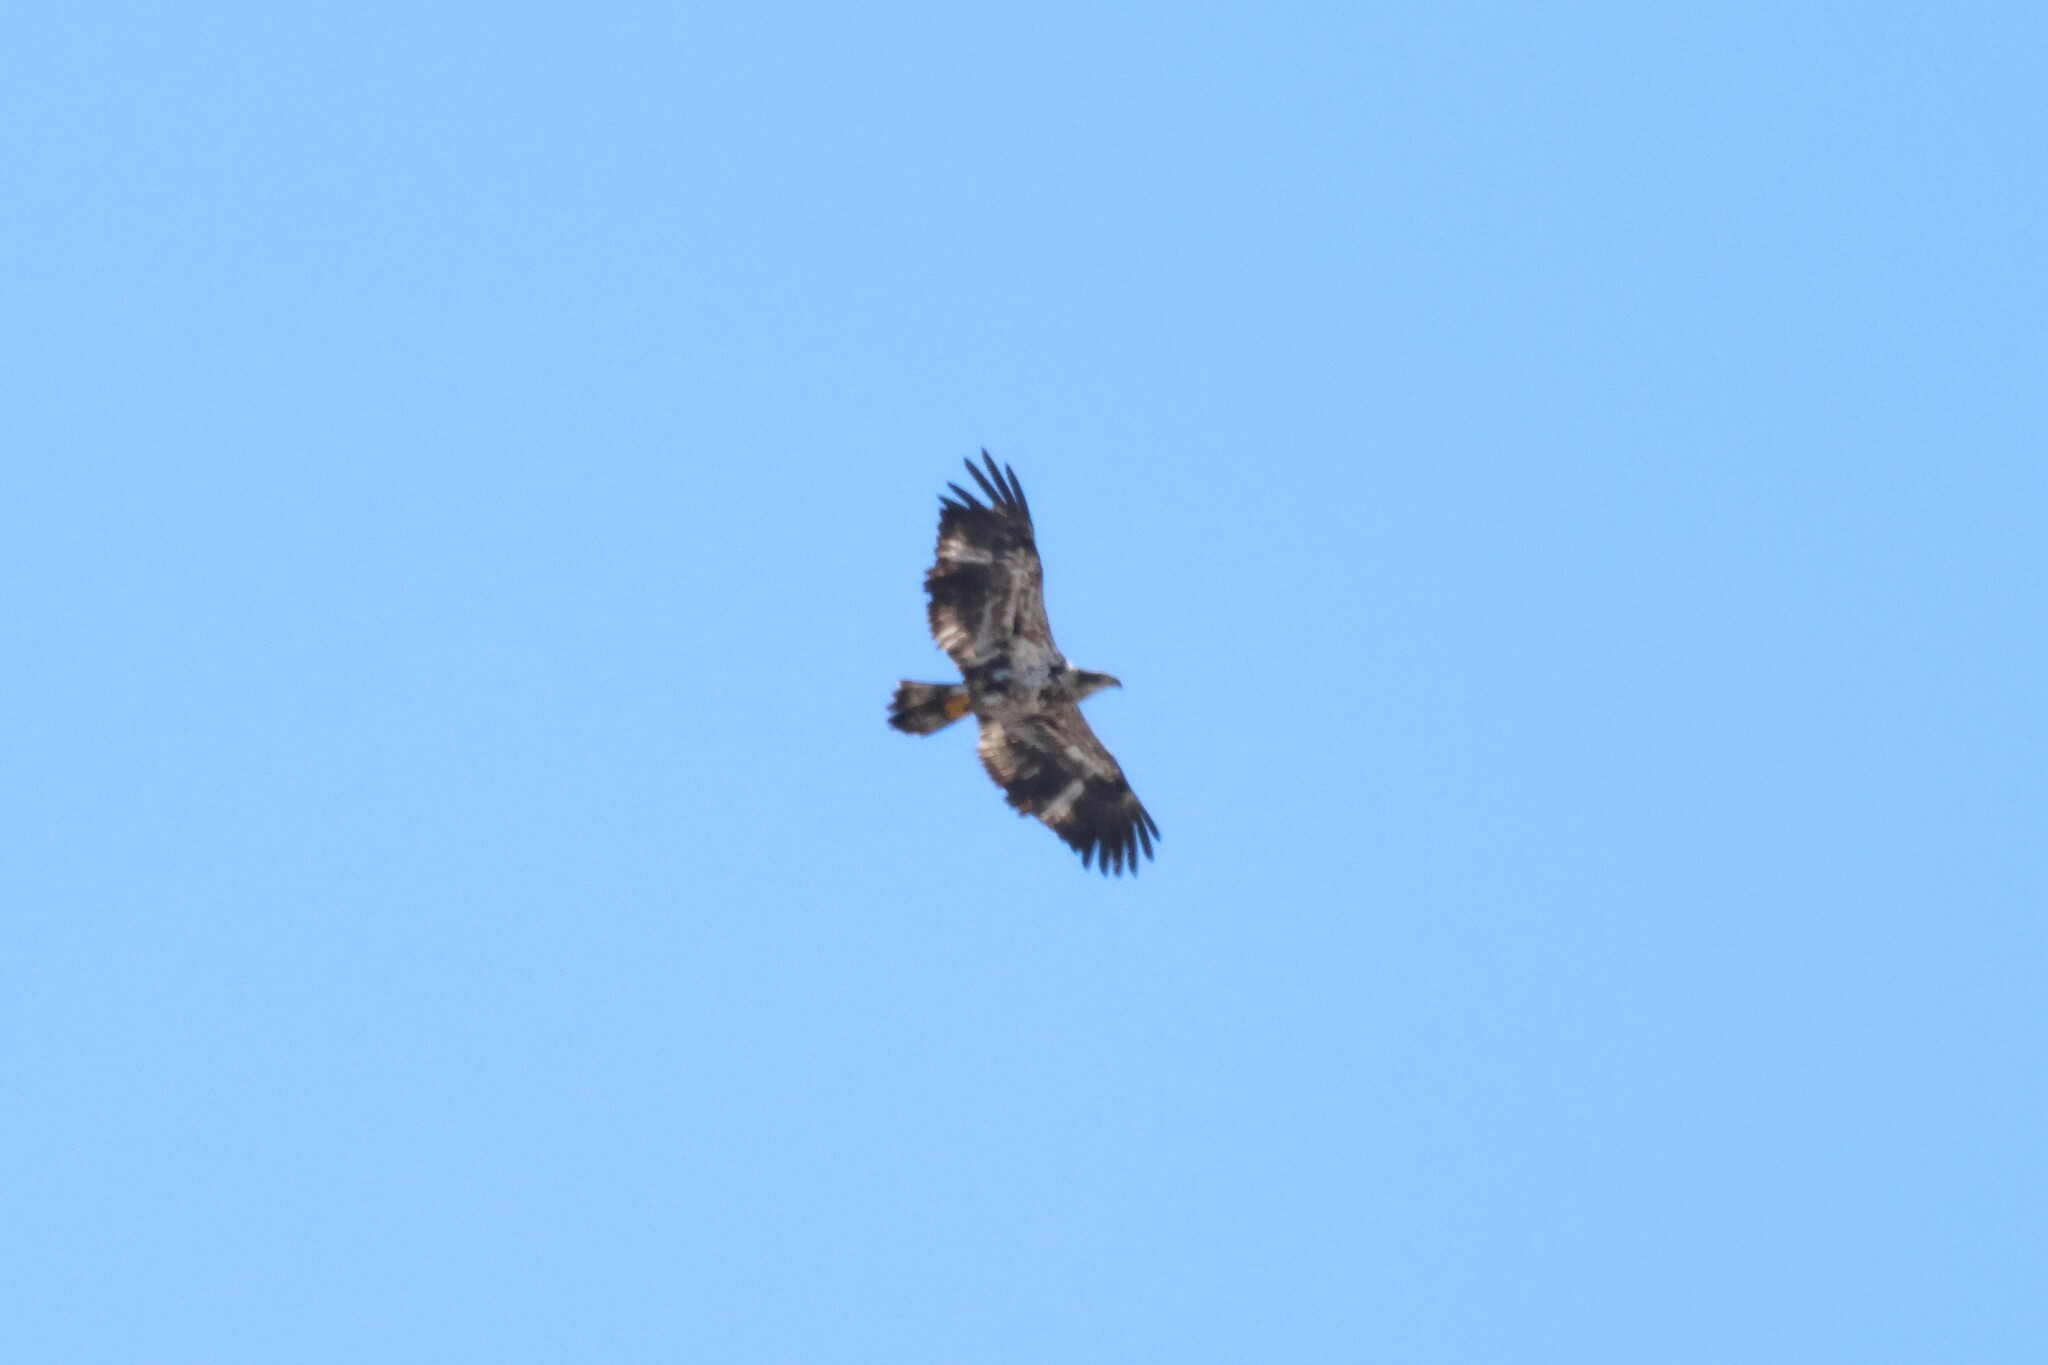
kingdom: Animalia
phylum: Chordata
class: Aves
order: Accipitriformes
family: Accipitridae
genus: Haliaeetus
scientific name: Haliaeetus leucocephalus
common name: Bald eagle
